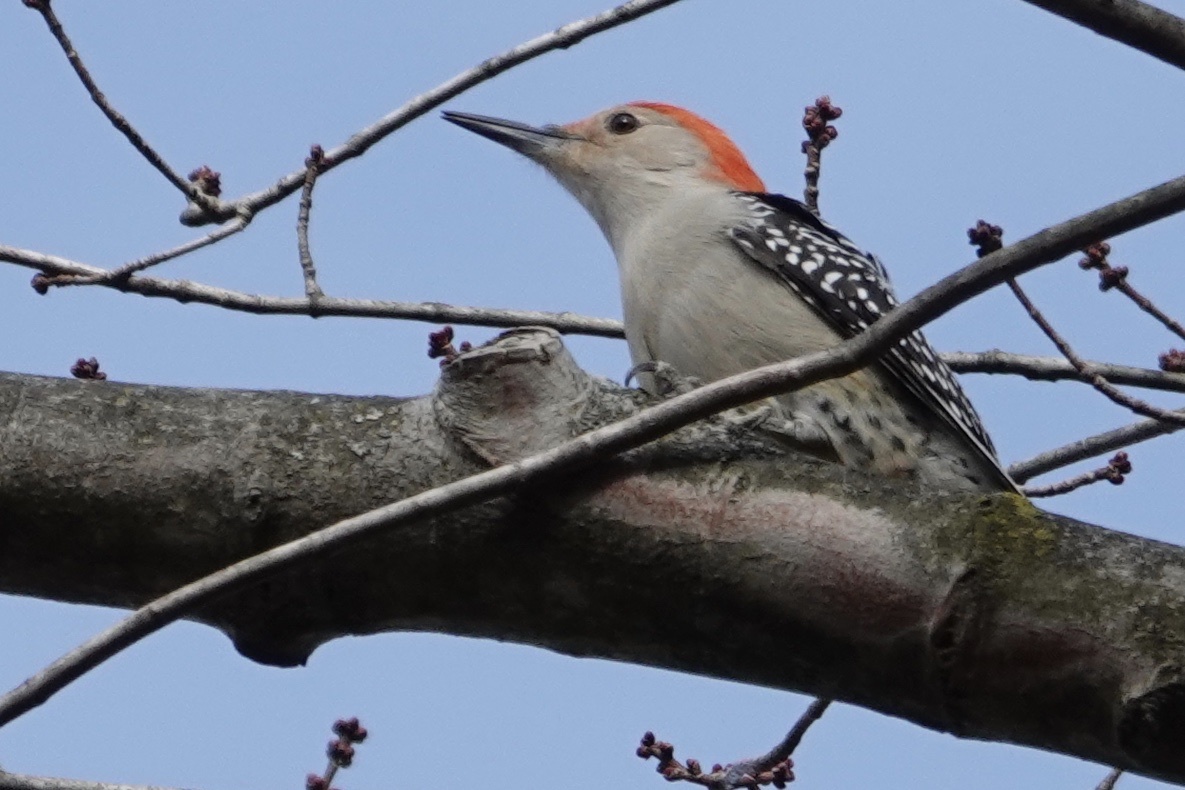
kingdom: Animalia
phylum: Chordata
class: Aves
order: Piciformes
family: Picidae
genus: Melanerpes
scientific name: Melanerpes carolinus
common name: Red-bellied woodpecker
